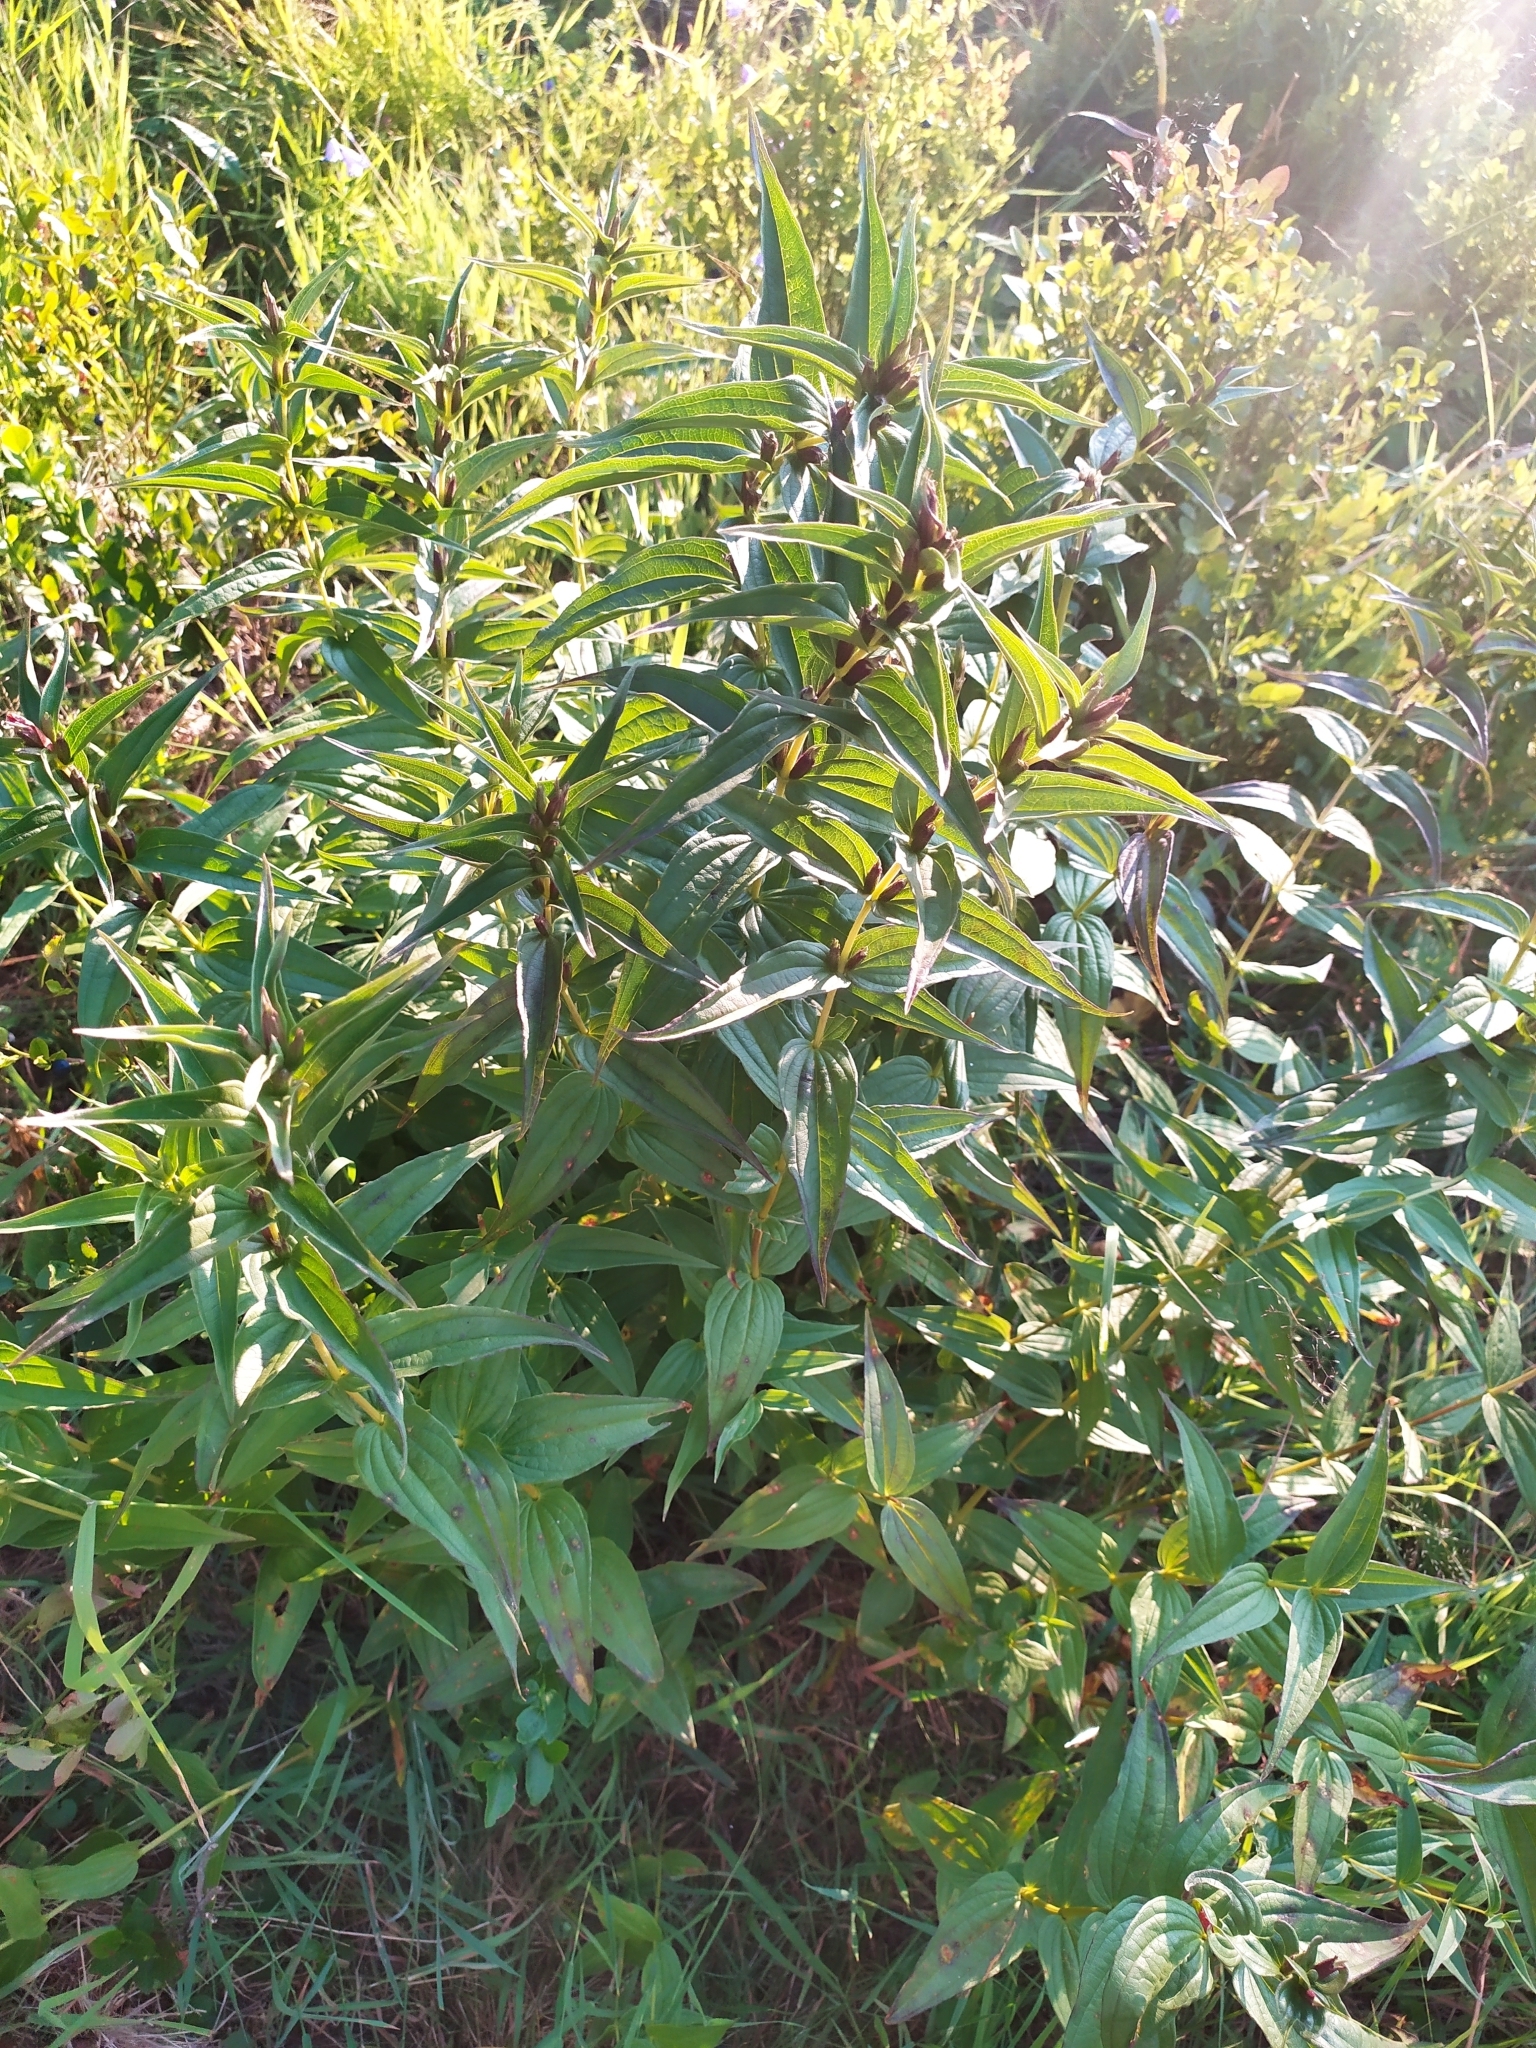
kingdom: Plantae
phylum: Tracheophyta
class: Magnoliopsida
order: Gentianales
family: Gentianaceae
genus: Gentiana
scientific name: Gentiana asclepiadea
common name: Willow gentian
